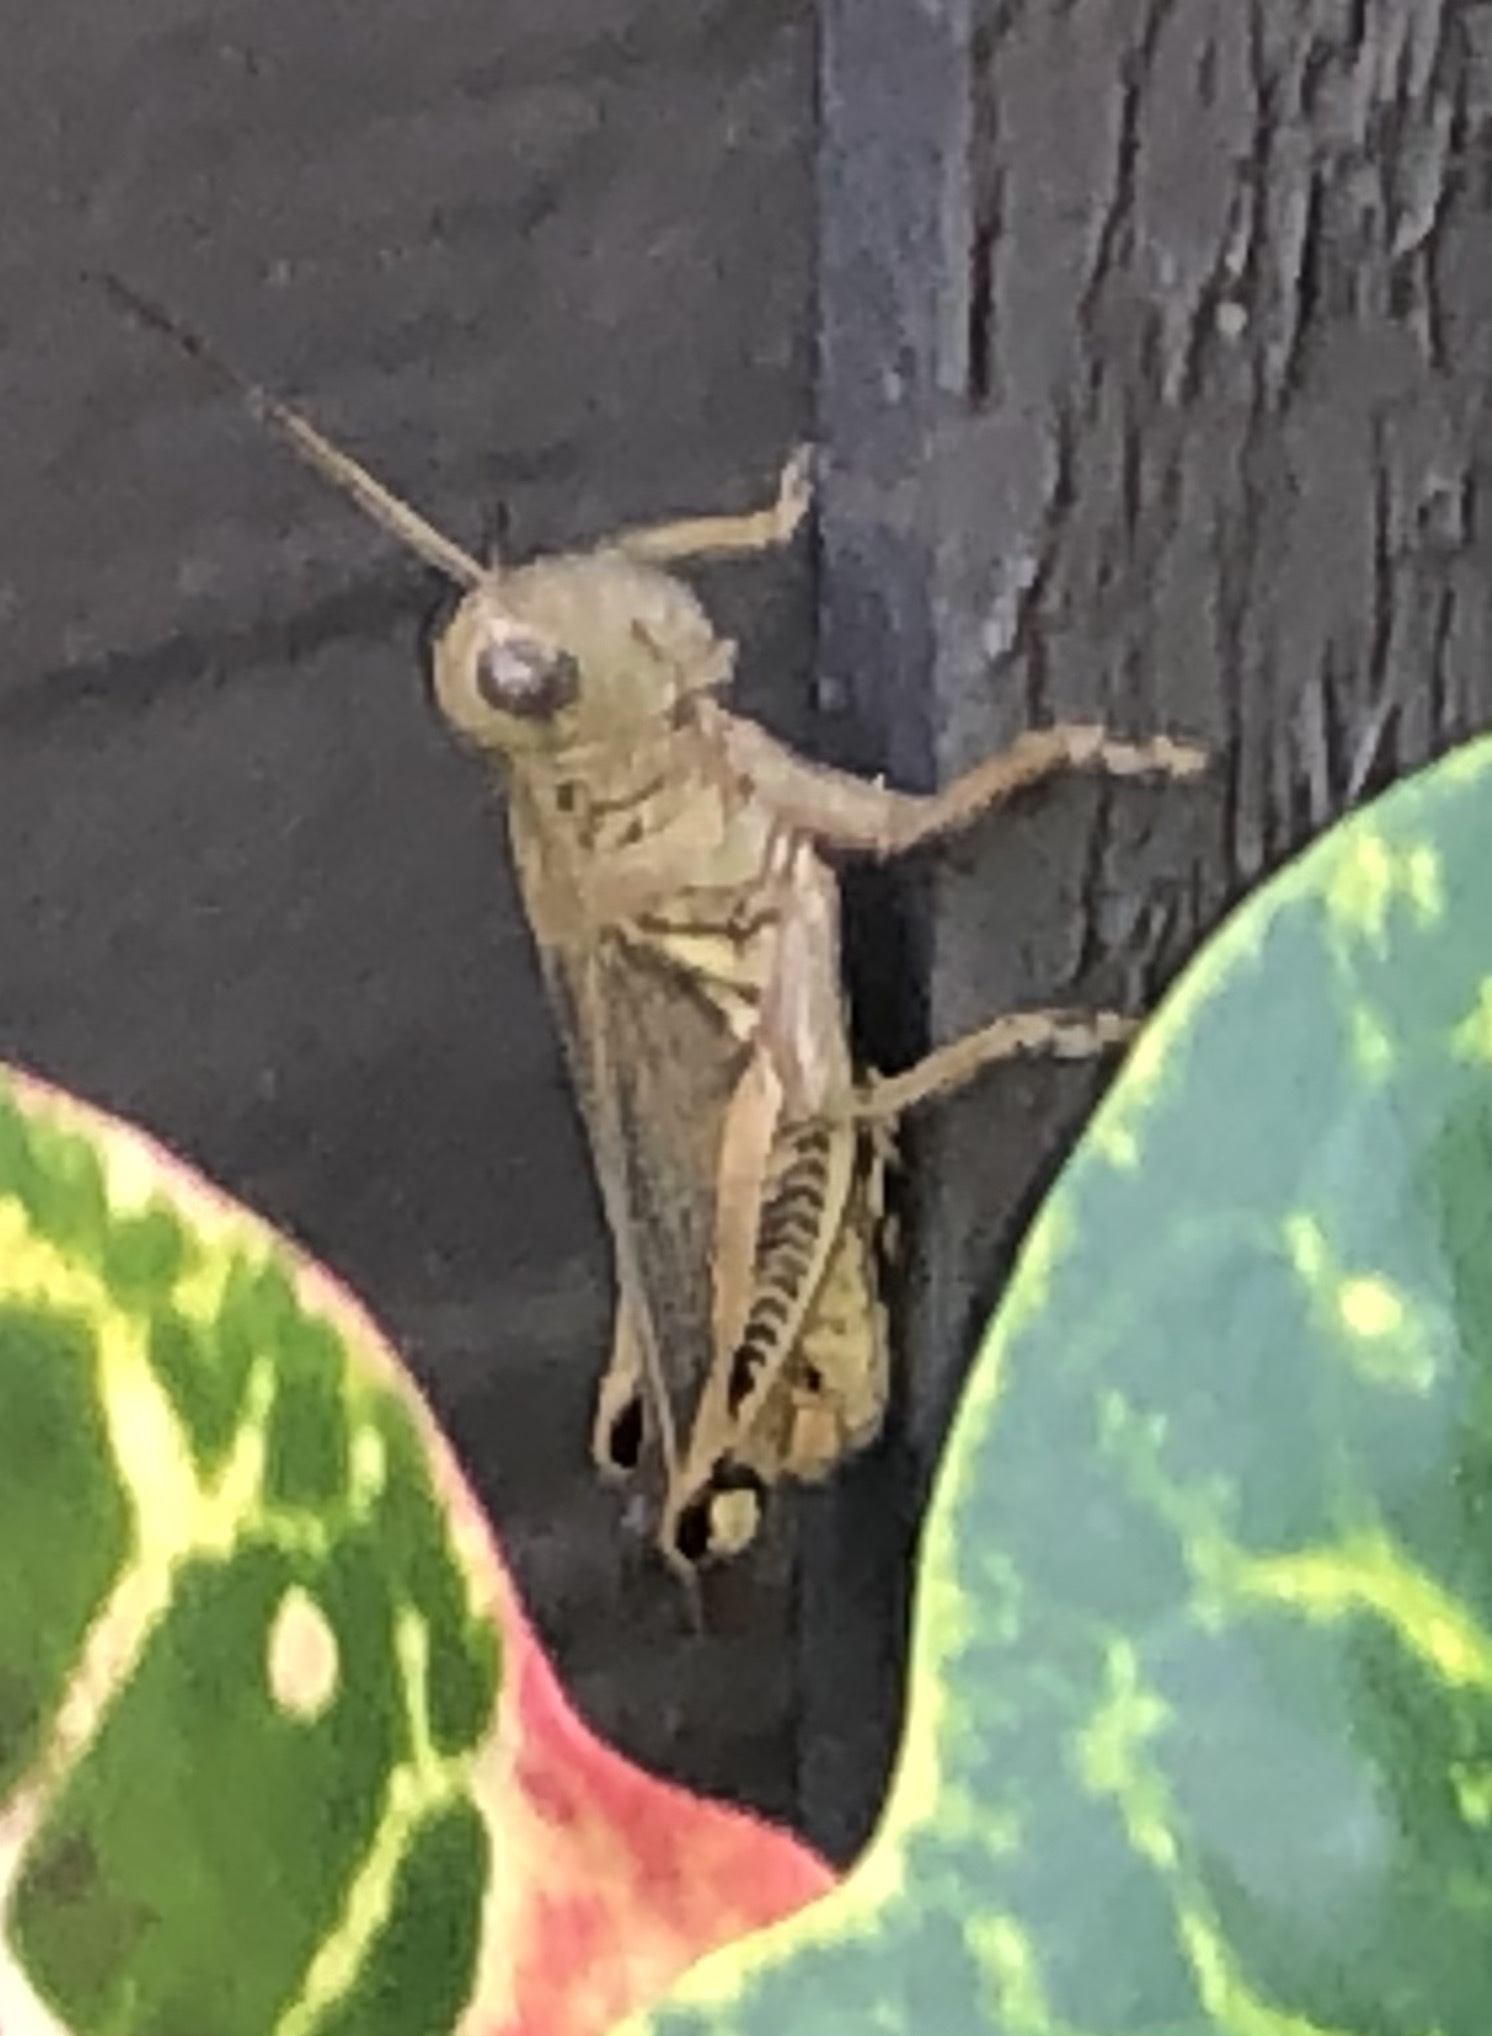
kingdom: Animalia
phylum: Arthropoda
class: Insecta
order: Orthoptera
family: Acrididae
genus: Melanoplus
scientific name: Melanoplus differentialis
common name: Differential grasshopper
